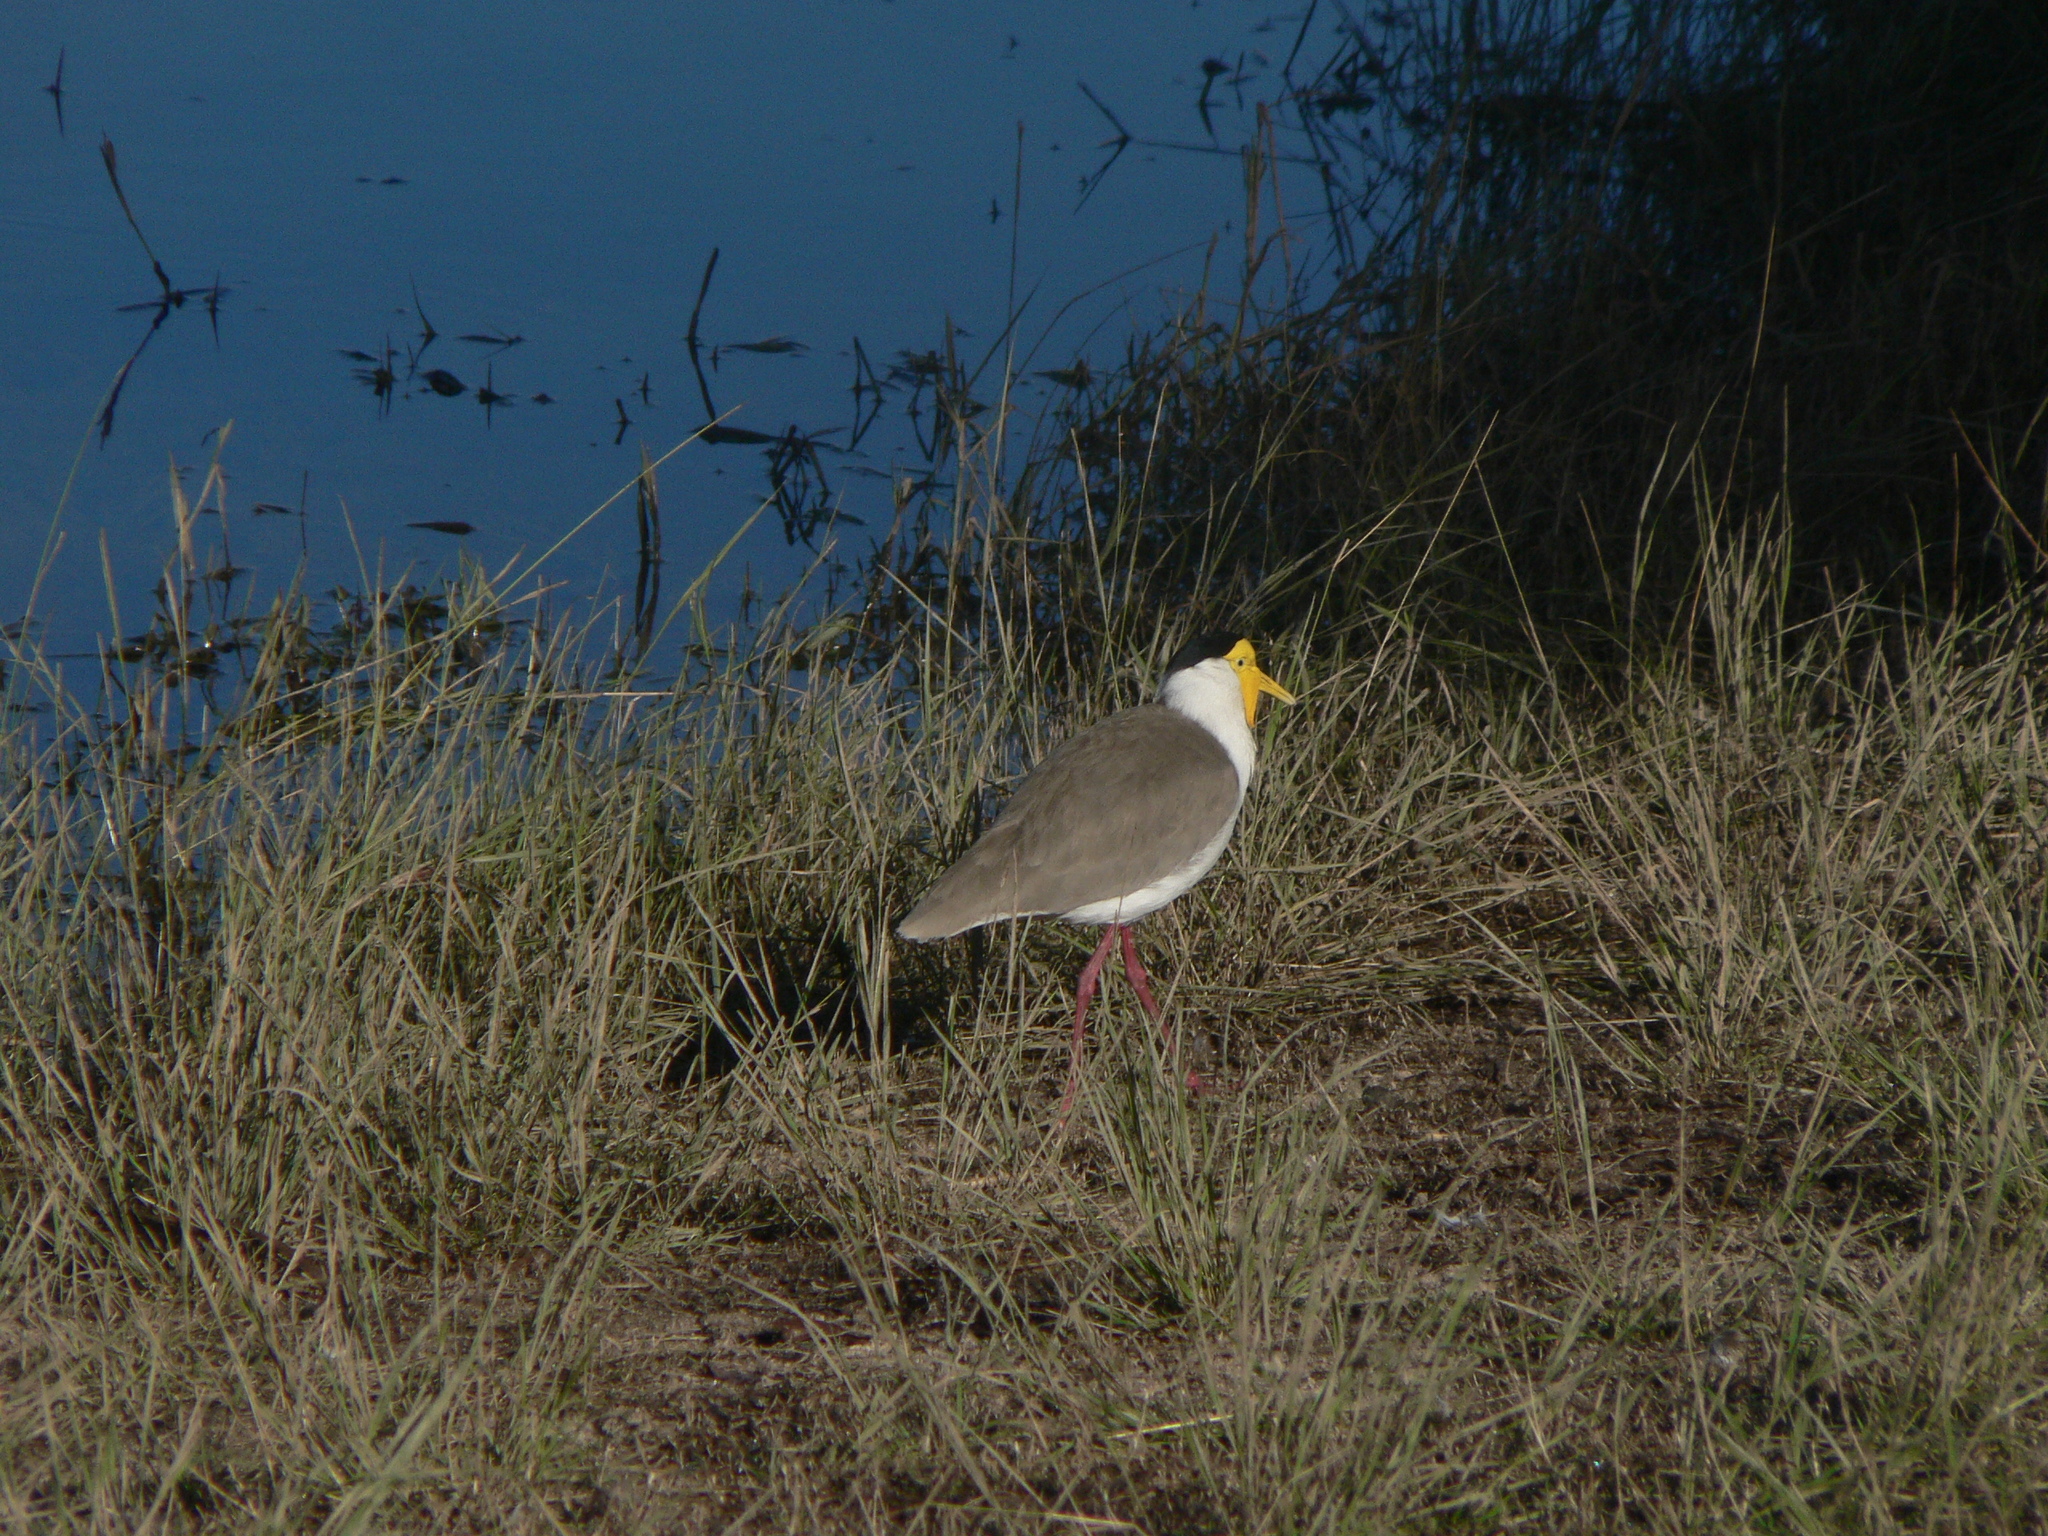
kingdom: Animalia
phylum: Chordata
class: Aves
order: Charadriiformes
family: Charadriidae
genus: Vanellus
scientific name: Vanellus miles
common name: Masked lapwing
